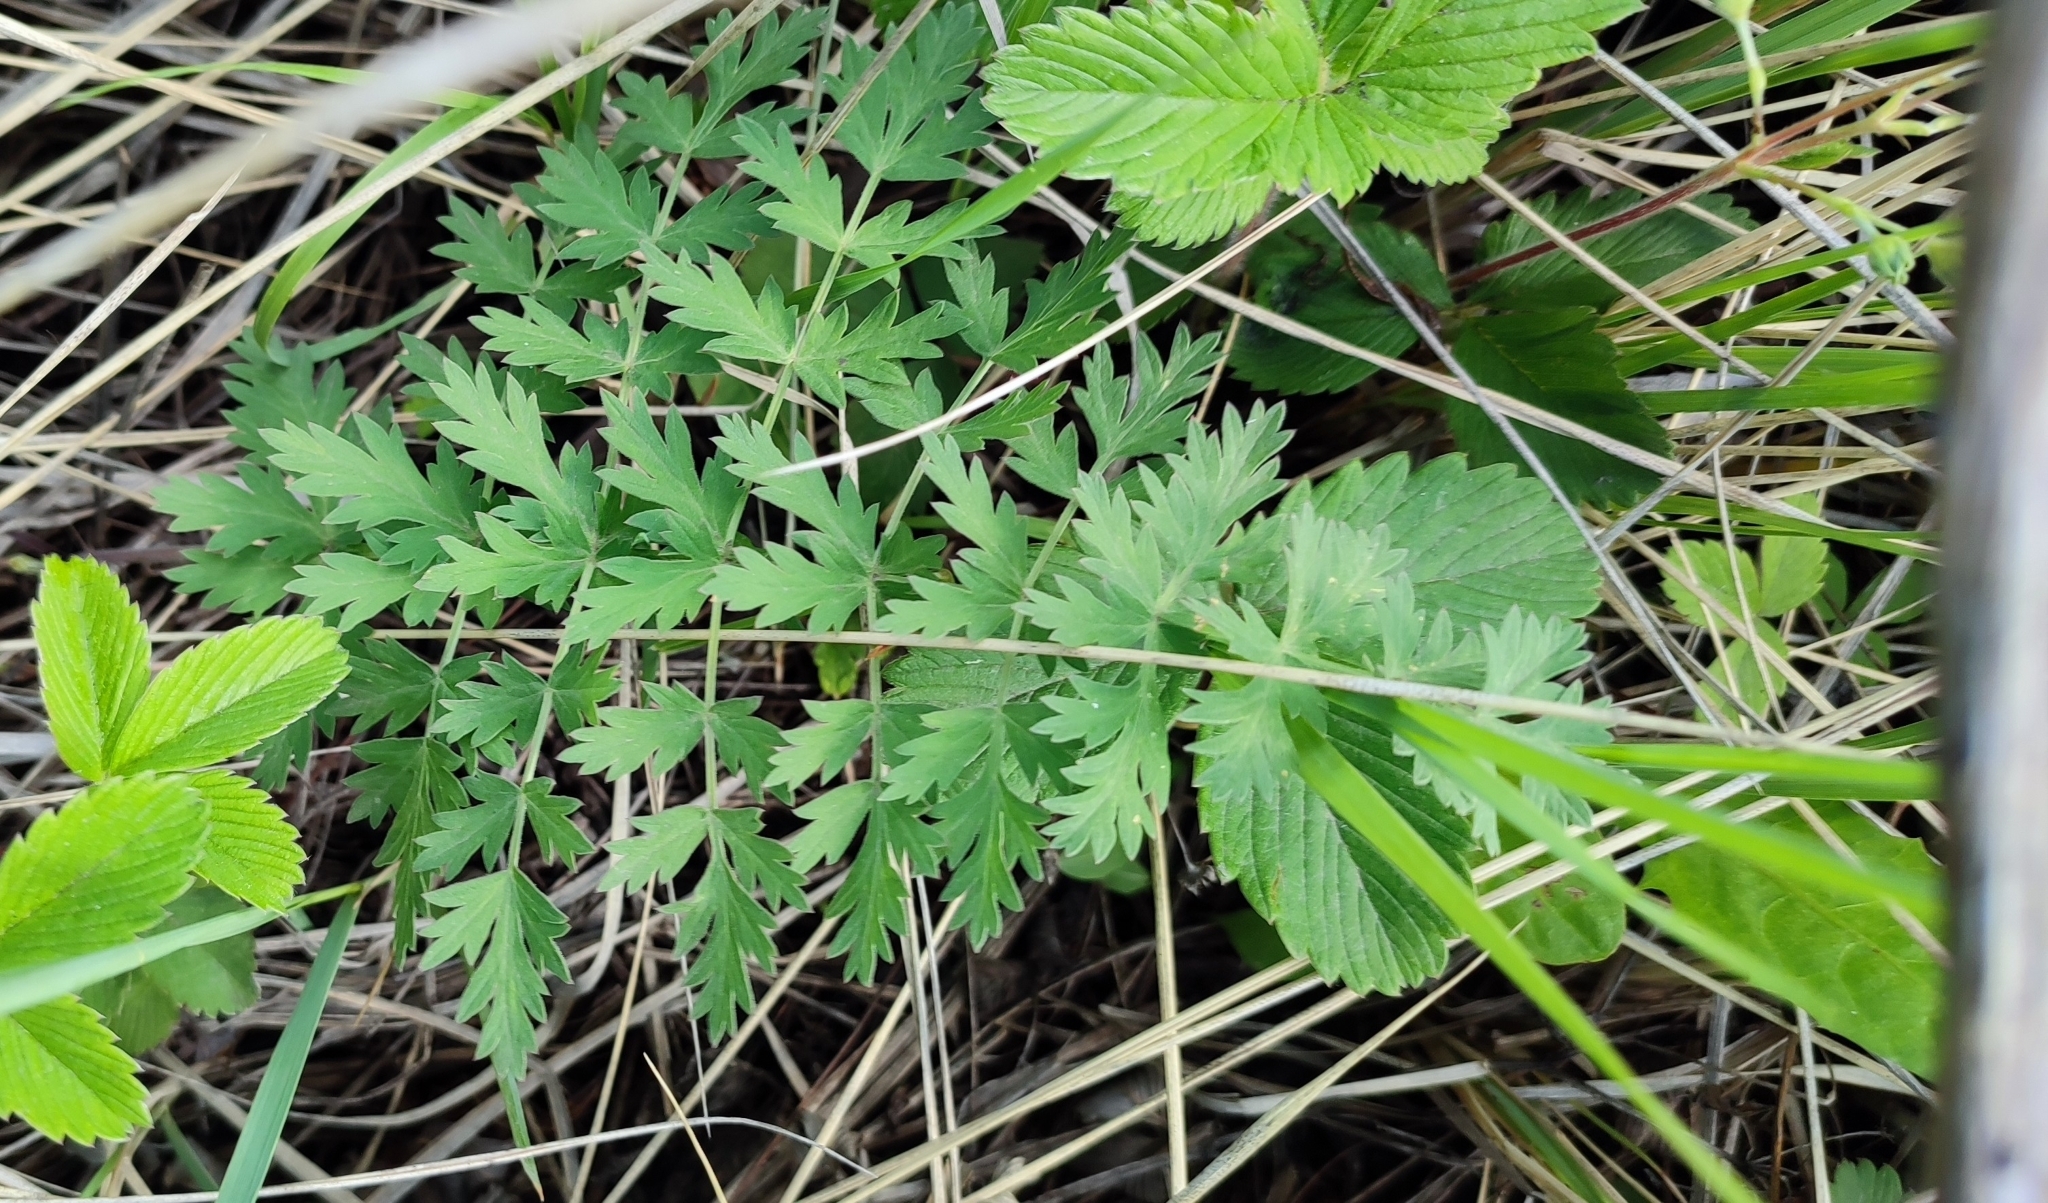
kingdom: Plantae
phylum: Tracheophyta
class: Magnoliopsida
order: Apiales
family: Apiaceae
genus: Seseli
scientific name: Seseli libanotis
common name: Mooncarrot
